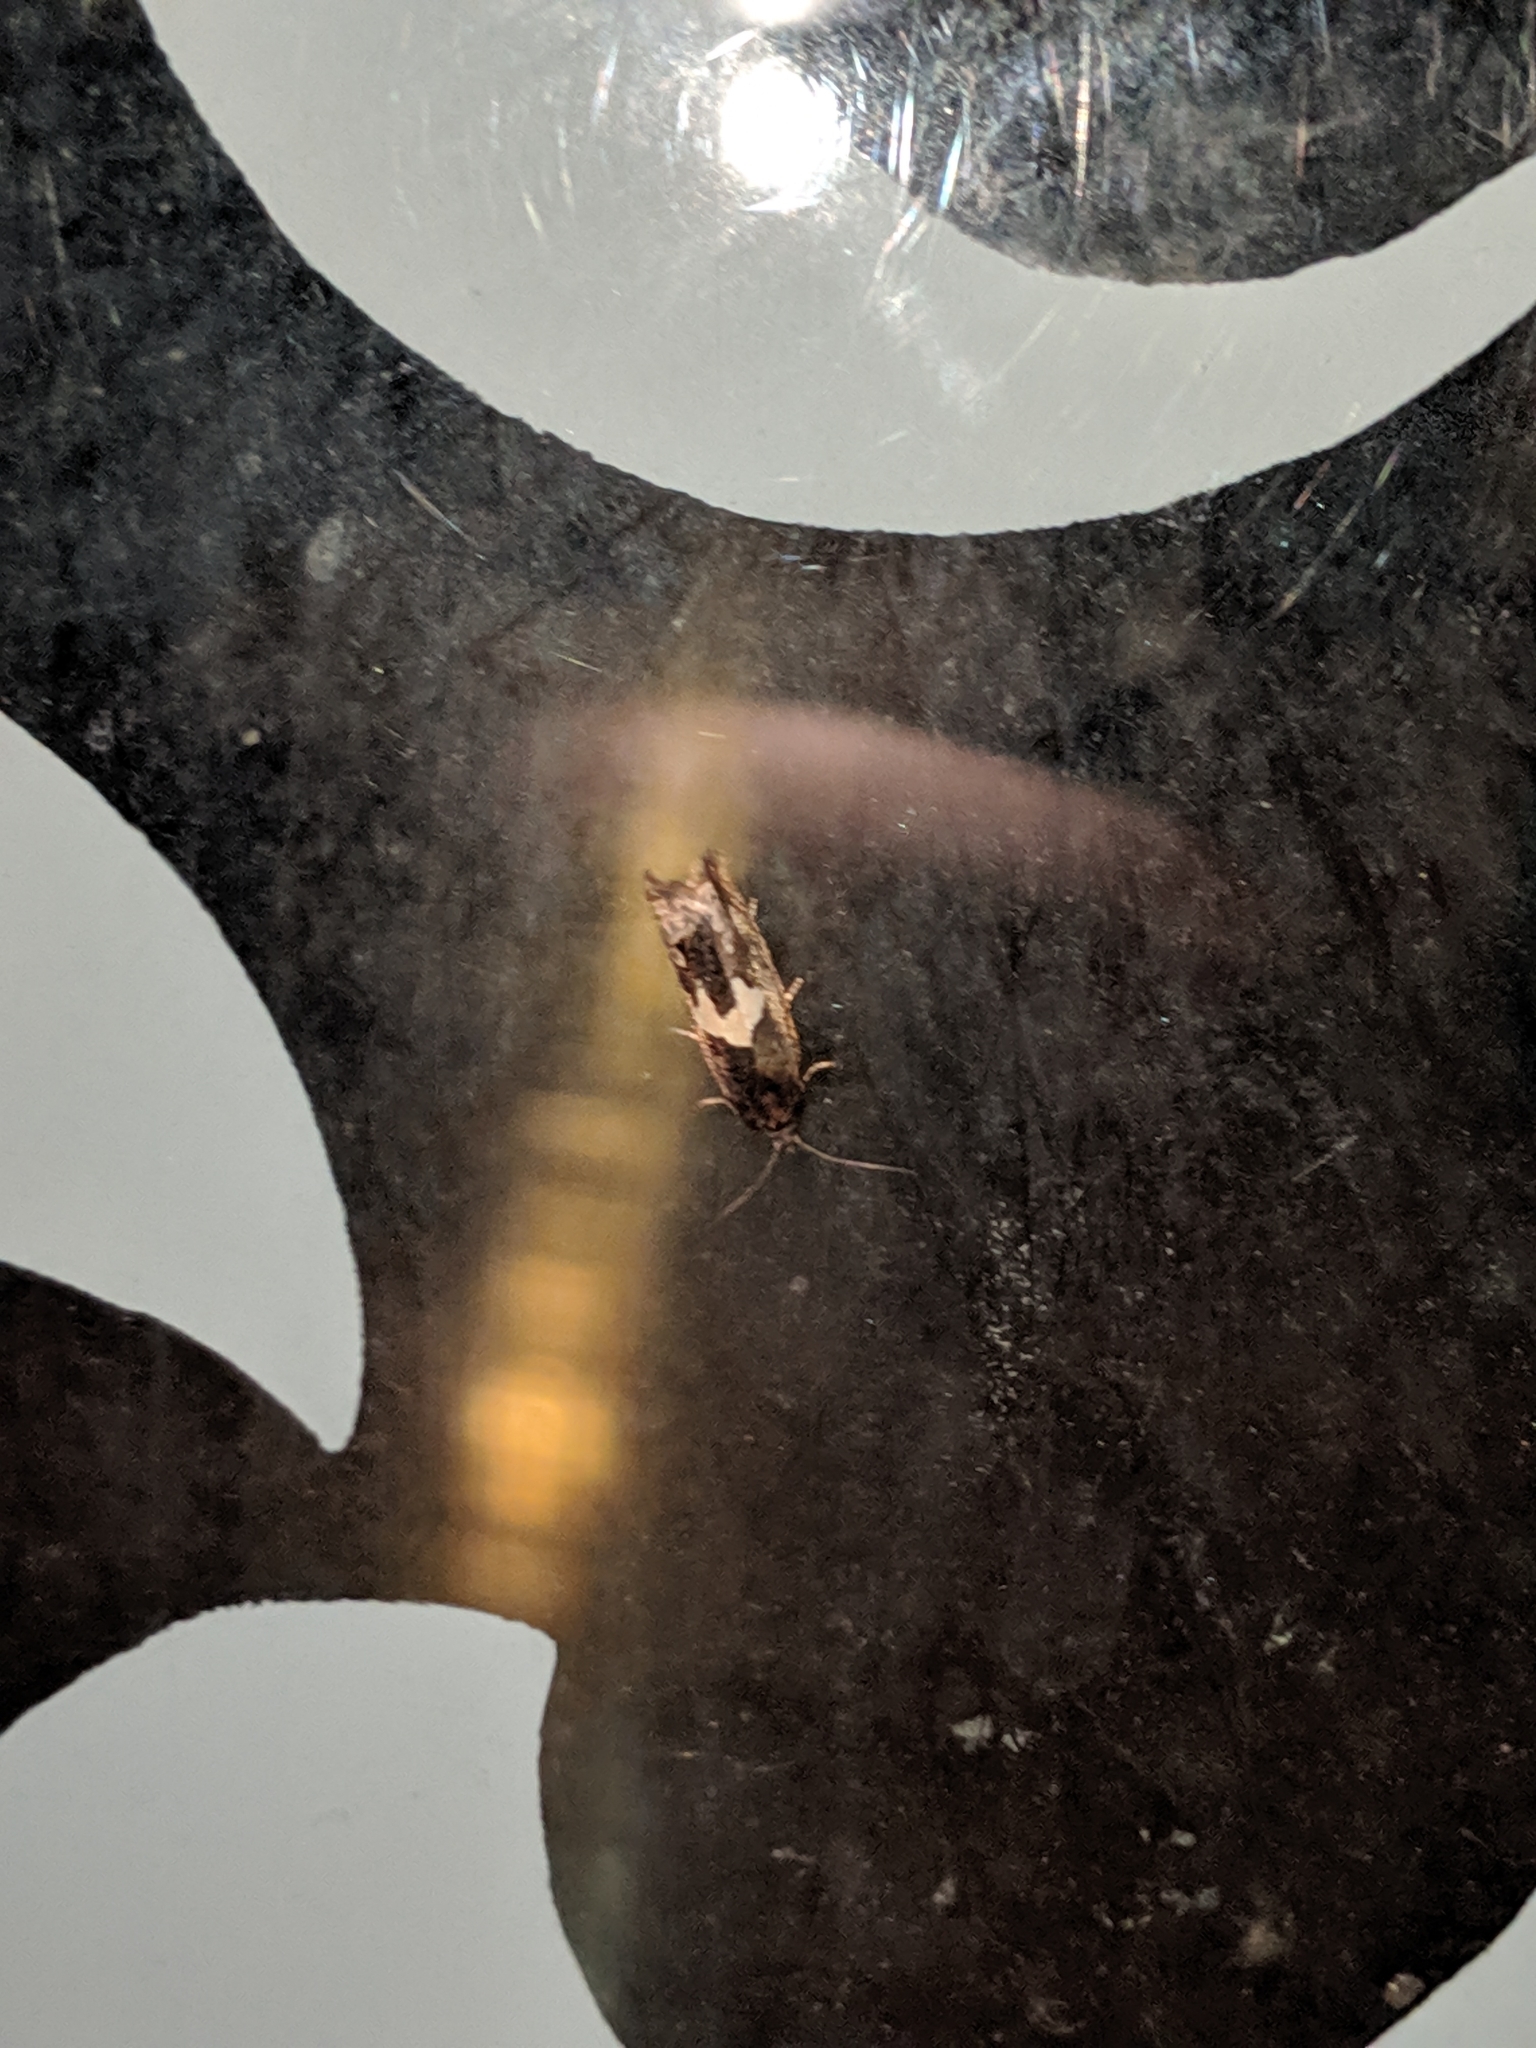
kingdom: Animalia
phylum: Arthropoda
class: Insecta
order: Lepidoptera
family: Tortricidae
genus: Epiblema
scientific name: Epiblema otiosana
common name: Bidens borer moth
